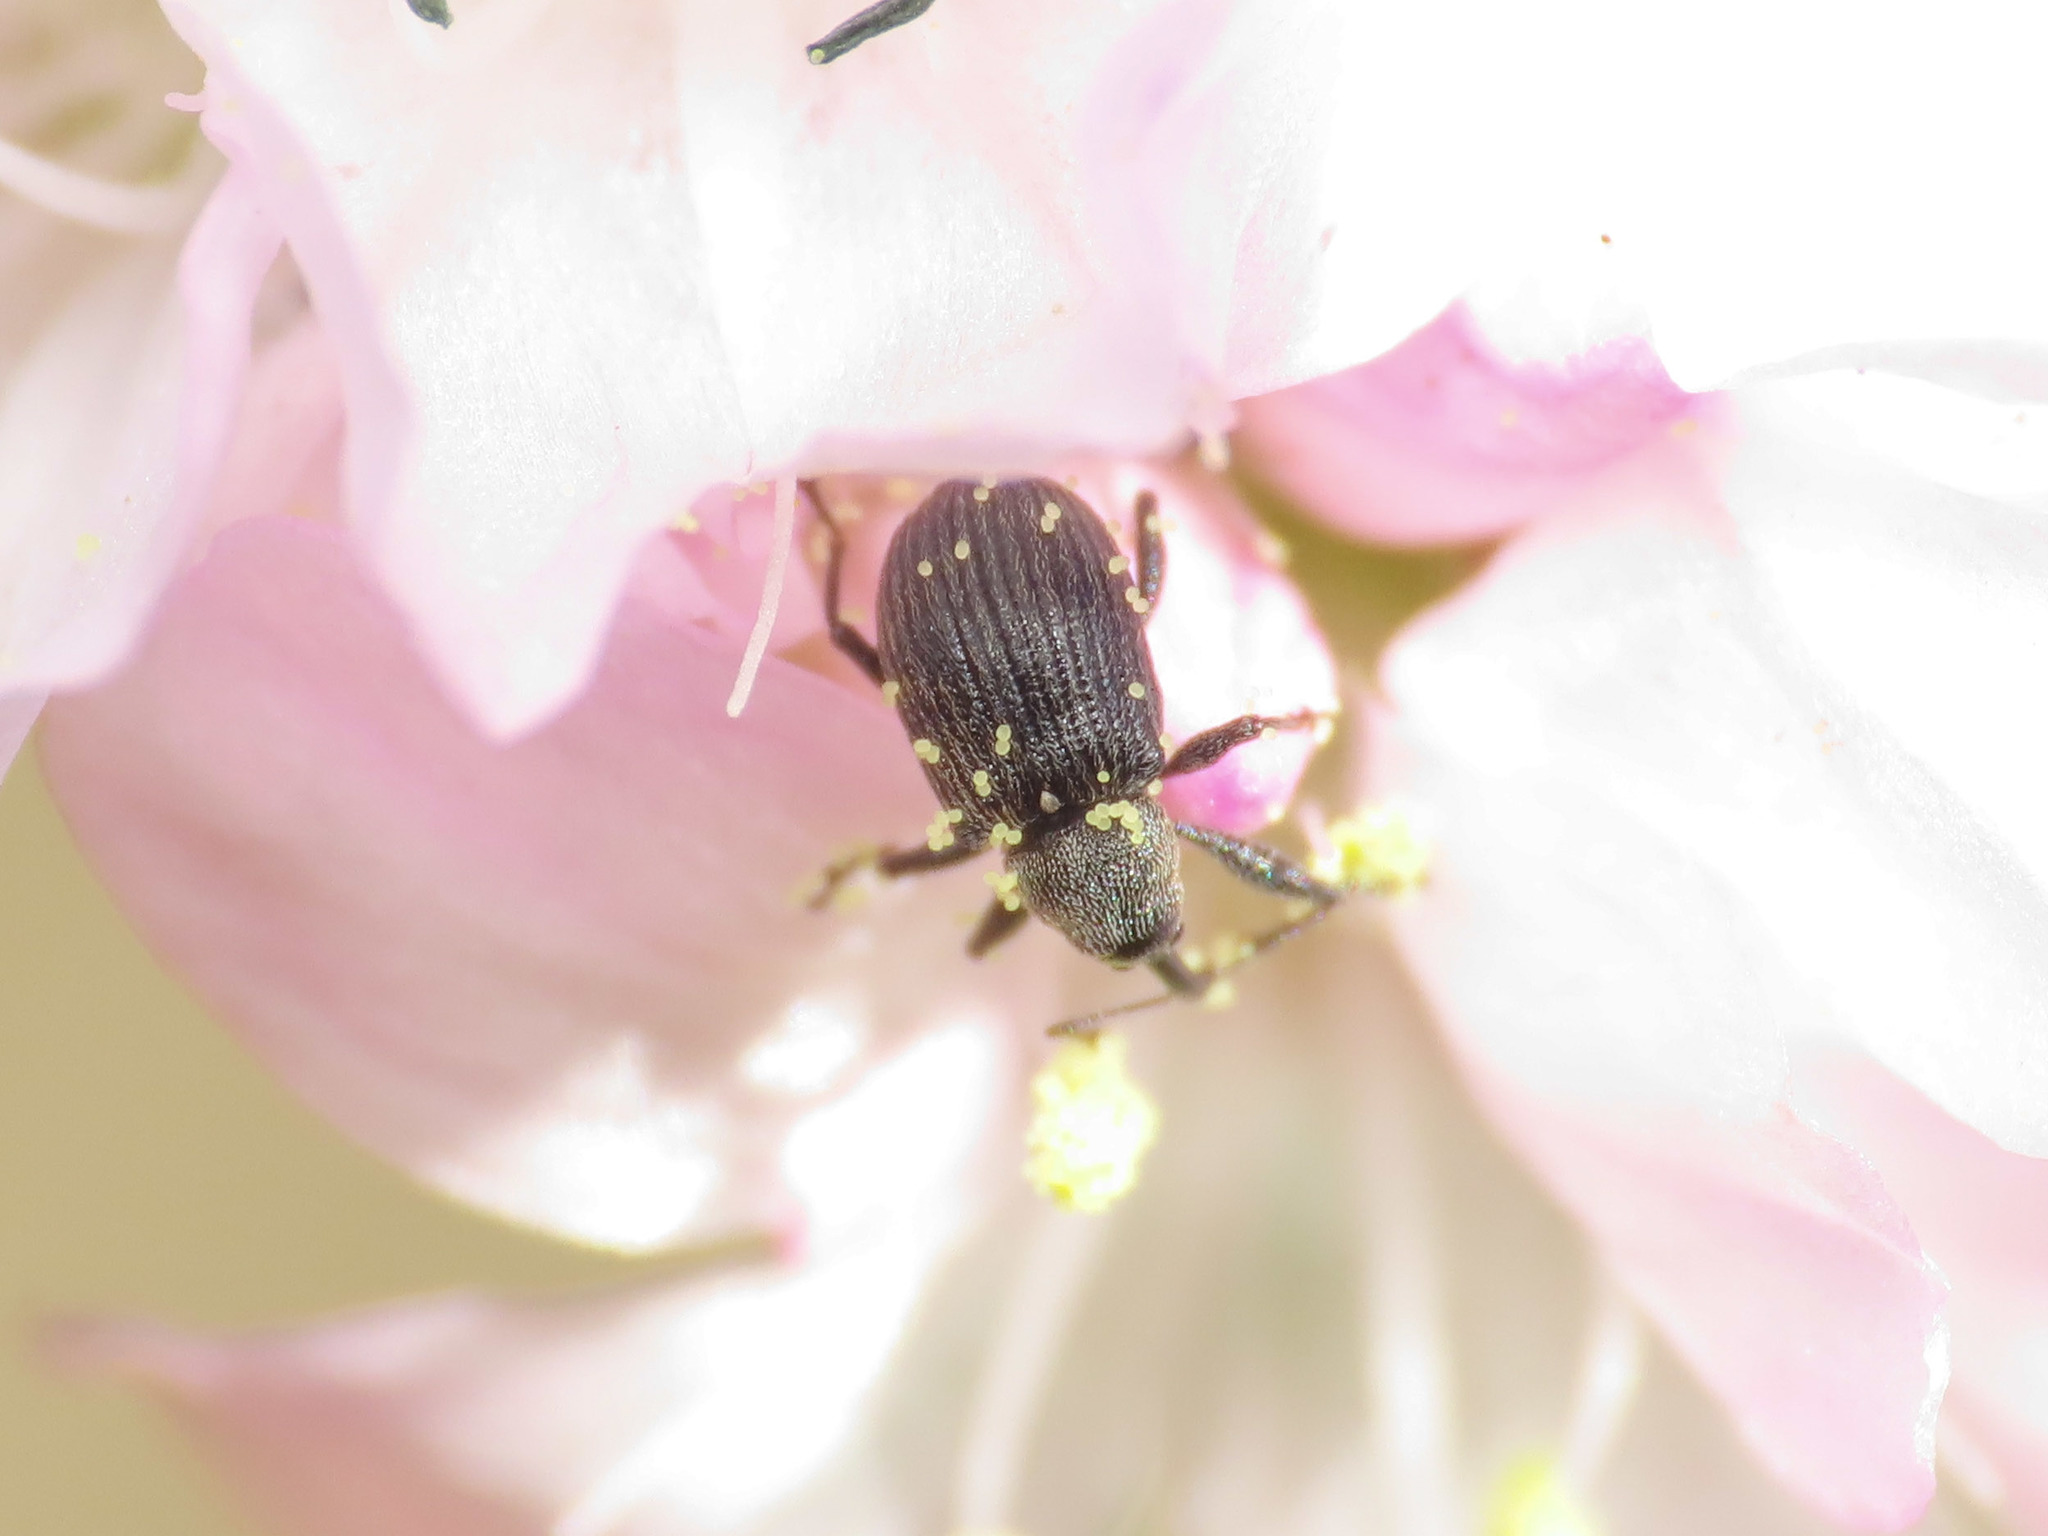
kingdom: Animalia
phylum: Arthropoda
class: Insecta
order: Coleoptera
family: Curculionidae
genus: Anthonomus
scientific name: Anthonomus rubi
